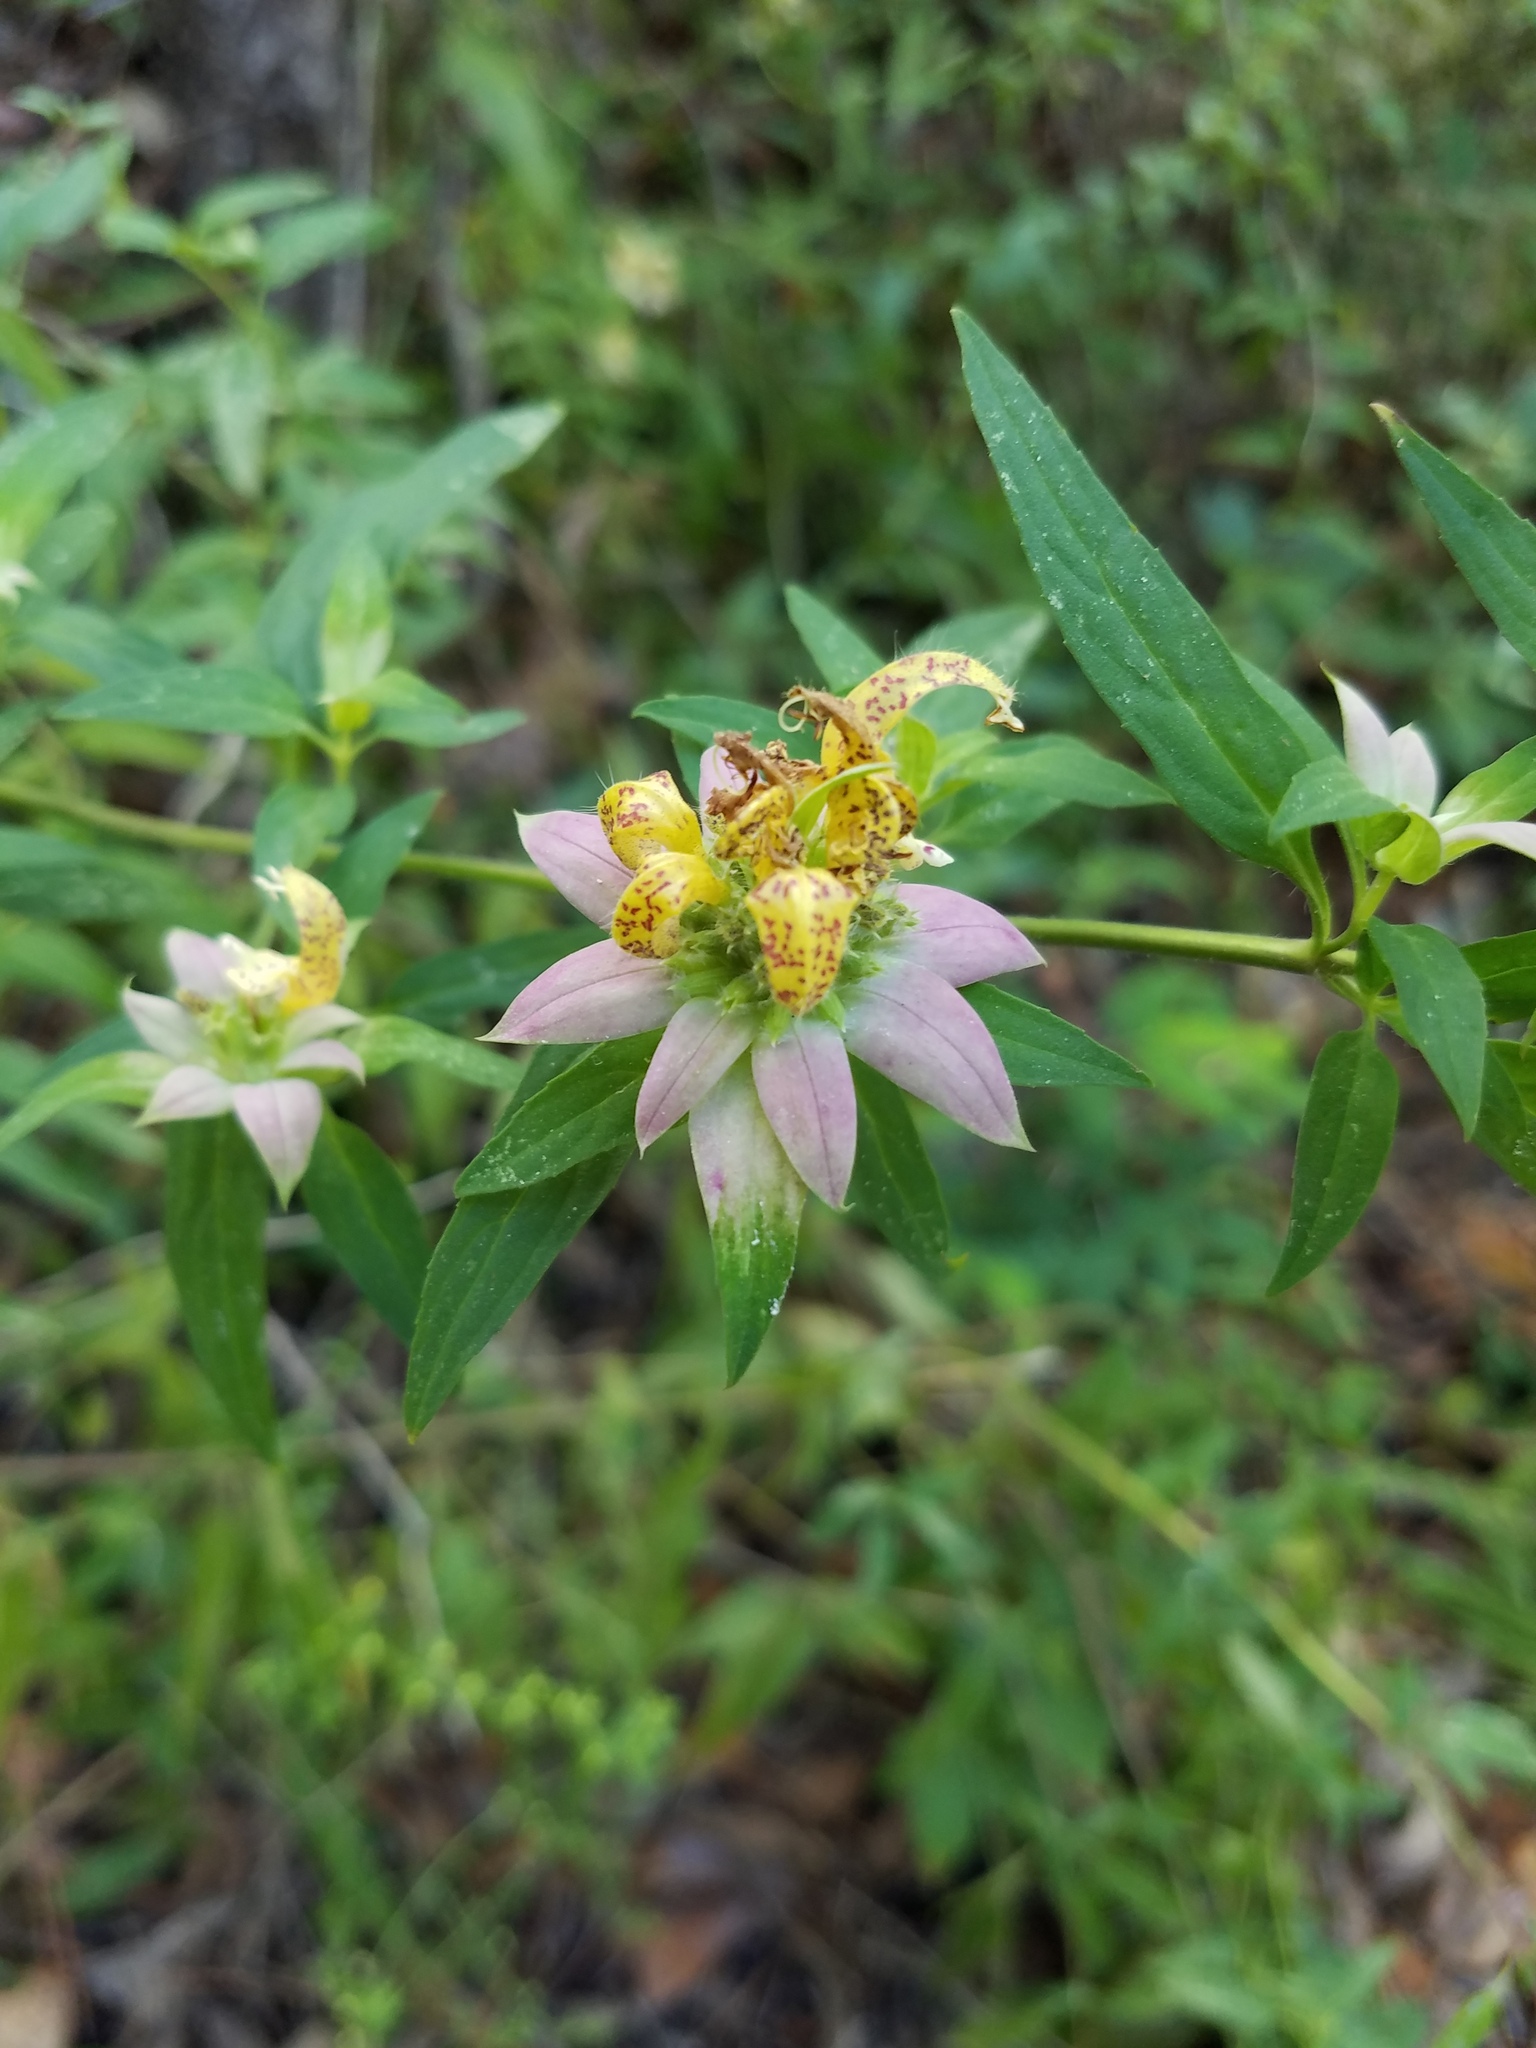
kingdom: Plantae
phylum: Tracheophyta
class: Magnoliopsida
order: Lamiales
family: Lamiaceae
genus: Monarda
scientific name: Monarda punctata
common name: Dotted monarda
